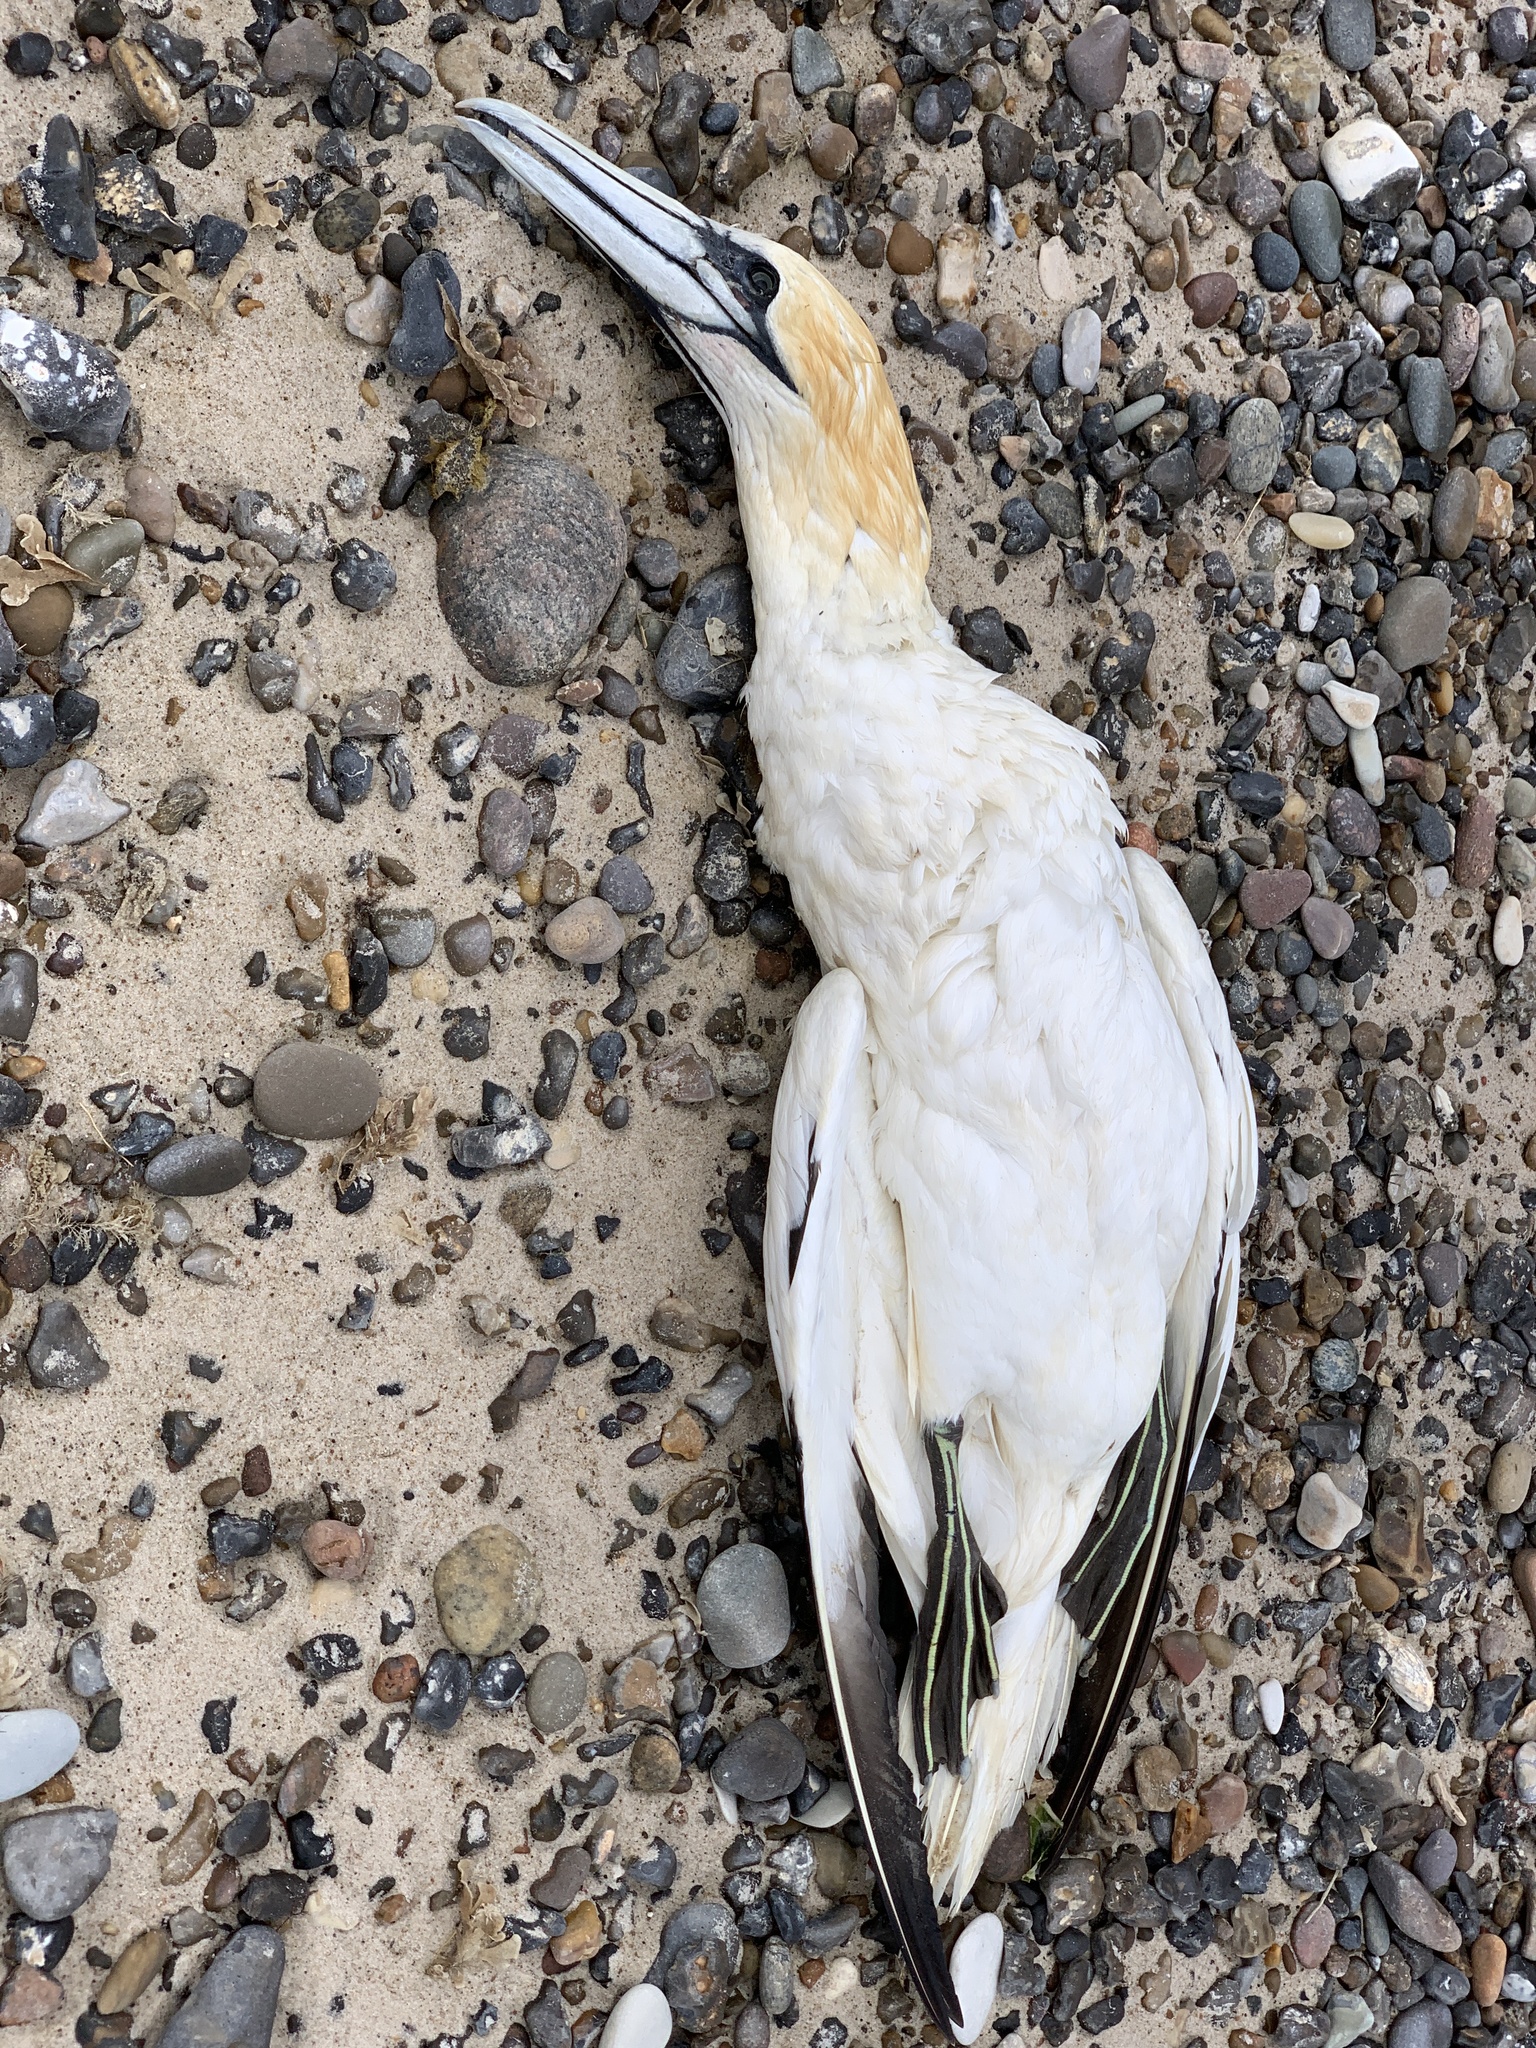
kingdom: Animalia
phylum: Chordata
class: Aves
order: Suliformes
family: Sulidae
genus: Morus
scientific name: Morus bassanus
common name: Northern gannet
